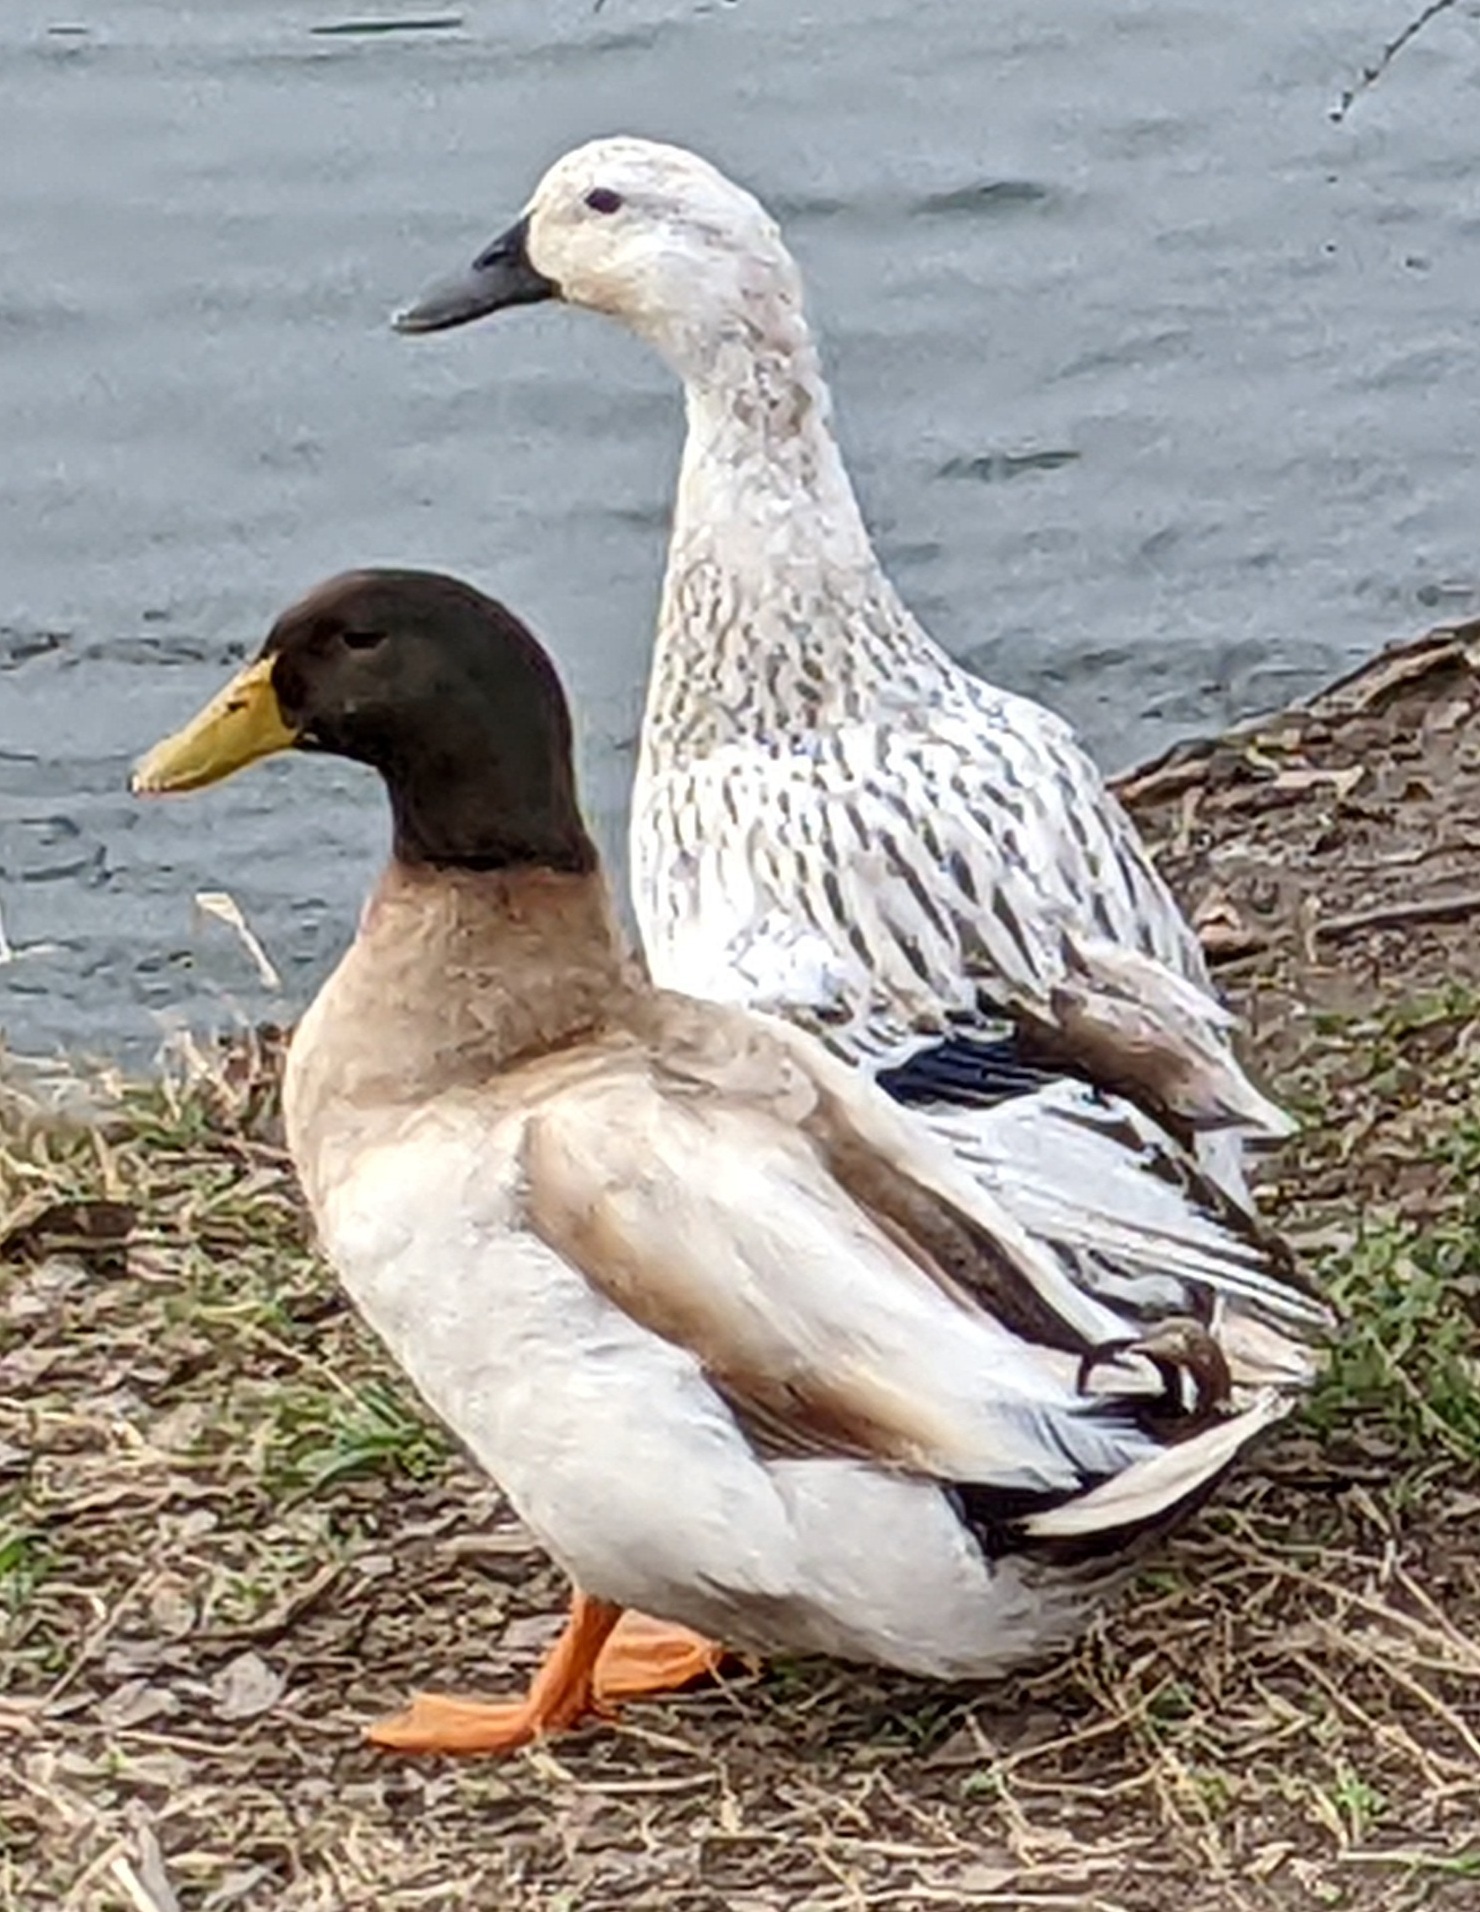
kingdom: Animalia
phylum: Chordata
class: Aves
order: Anseriformes
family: Anatidae
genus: Anas
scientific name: Anas platyrhynchos
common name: Mallard
